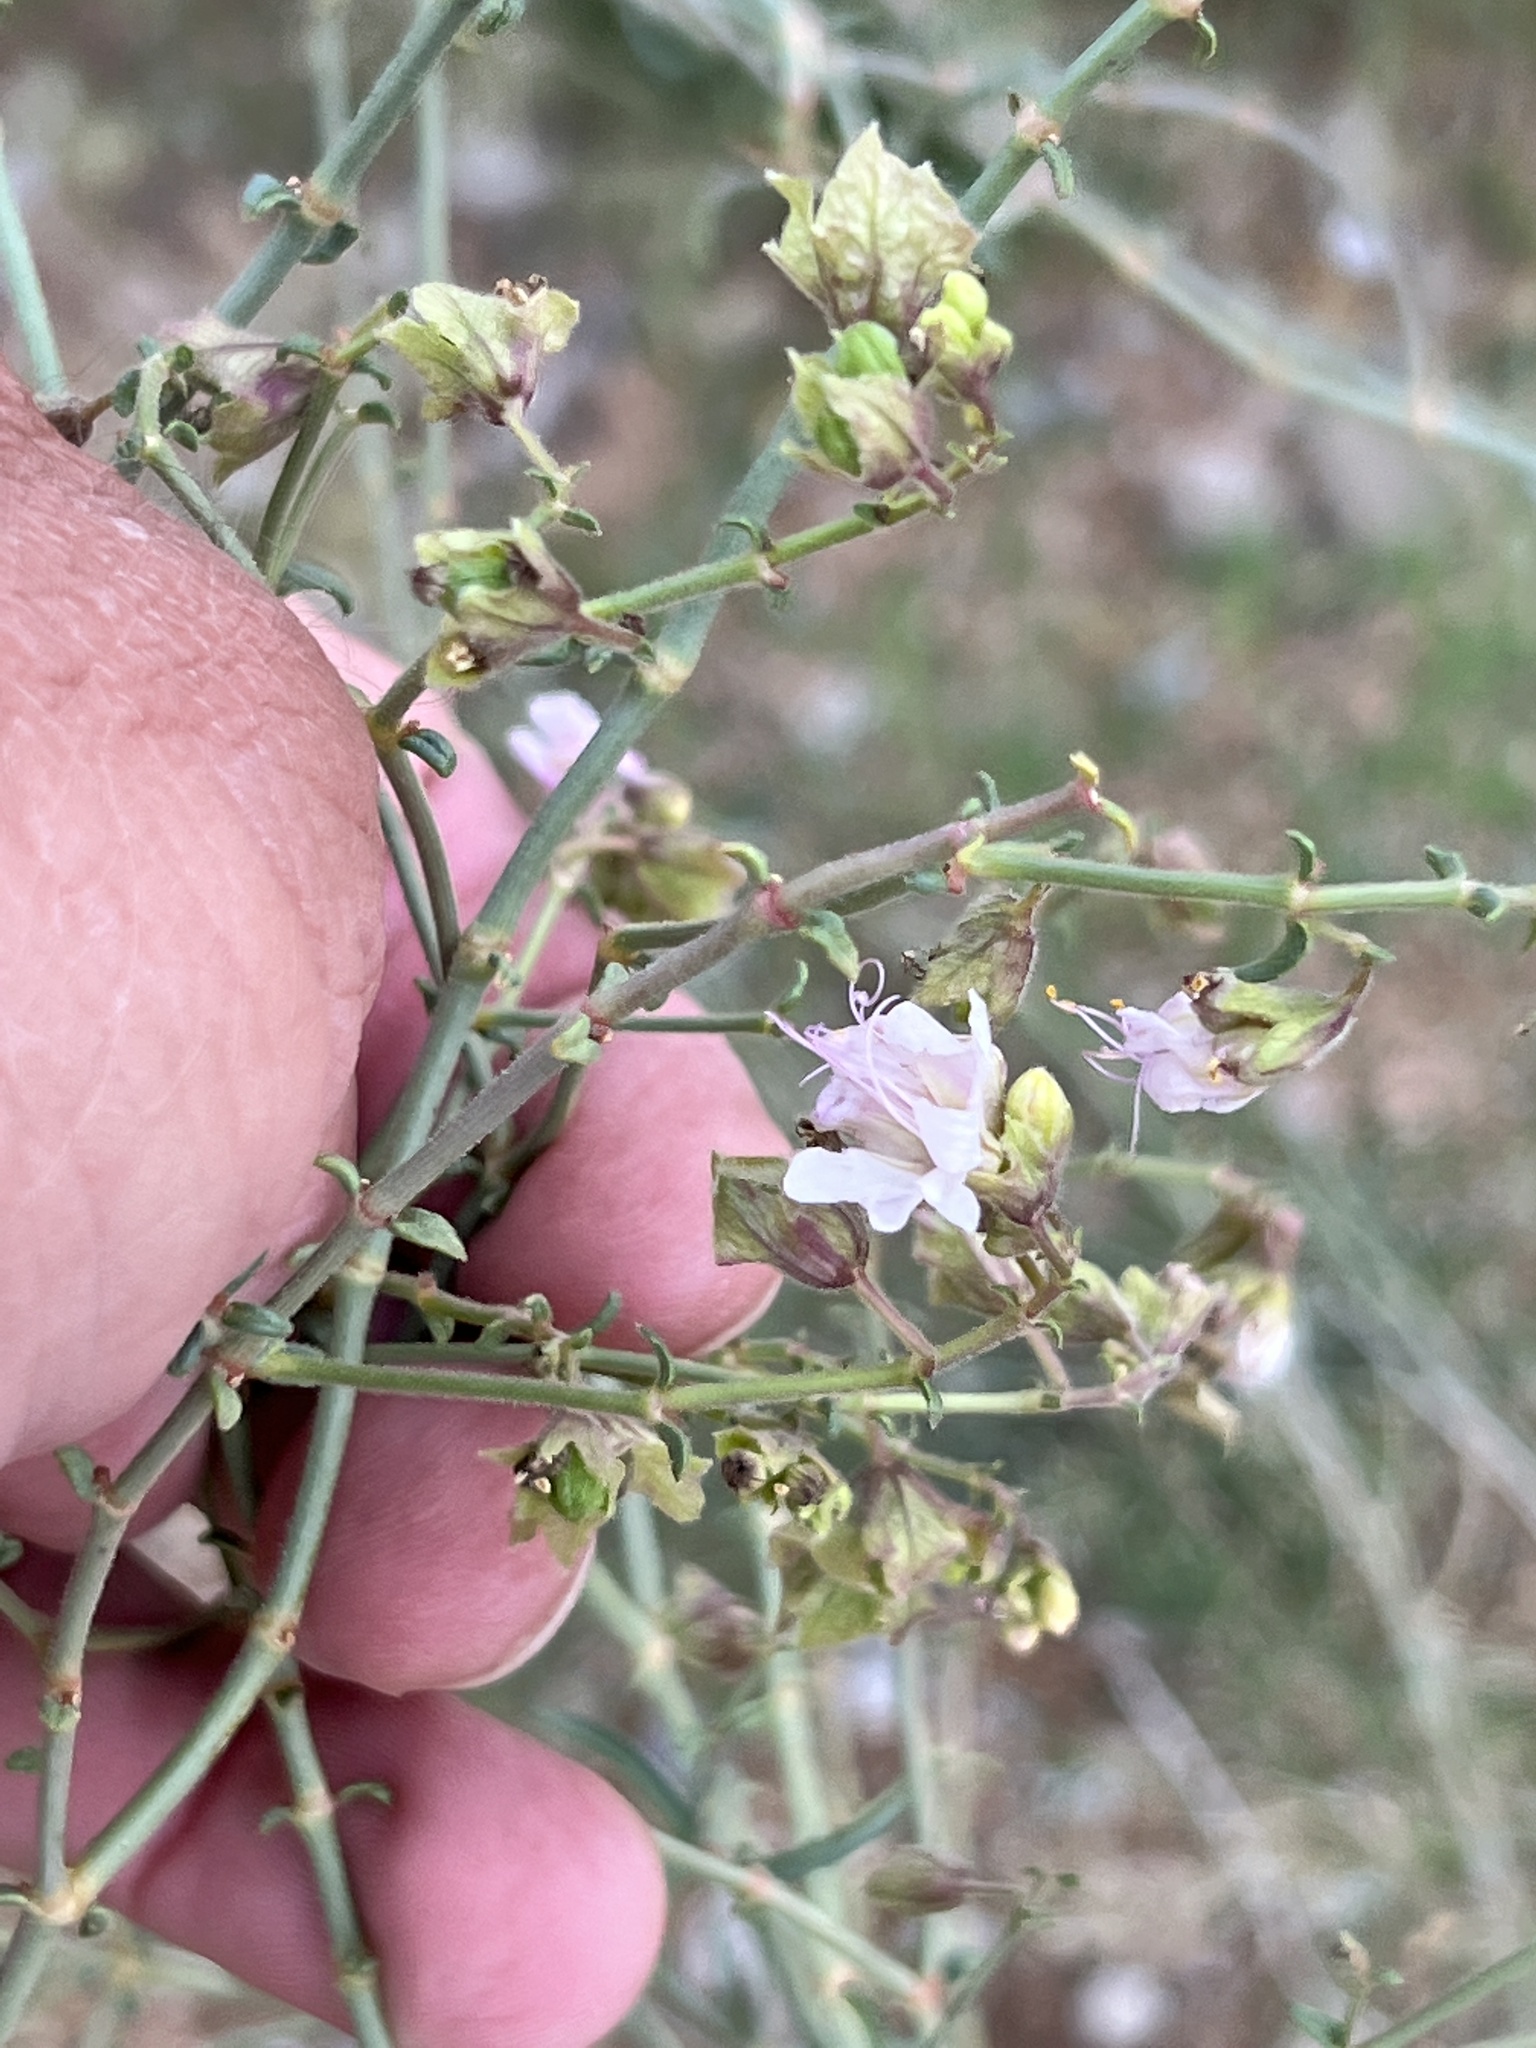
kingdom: Plantae
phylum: Tracheophyta
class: Magnoliopsida
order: Caryophyllales
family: Nyctaginaceae
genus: Mirabilis
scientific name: Mirabilis linearis
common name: Linear-leaved four-o'clock
